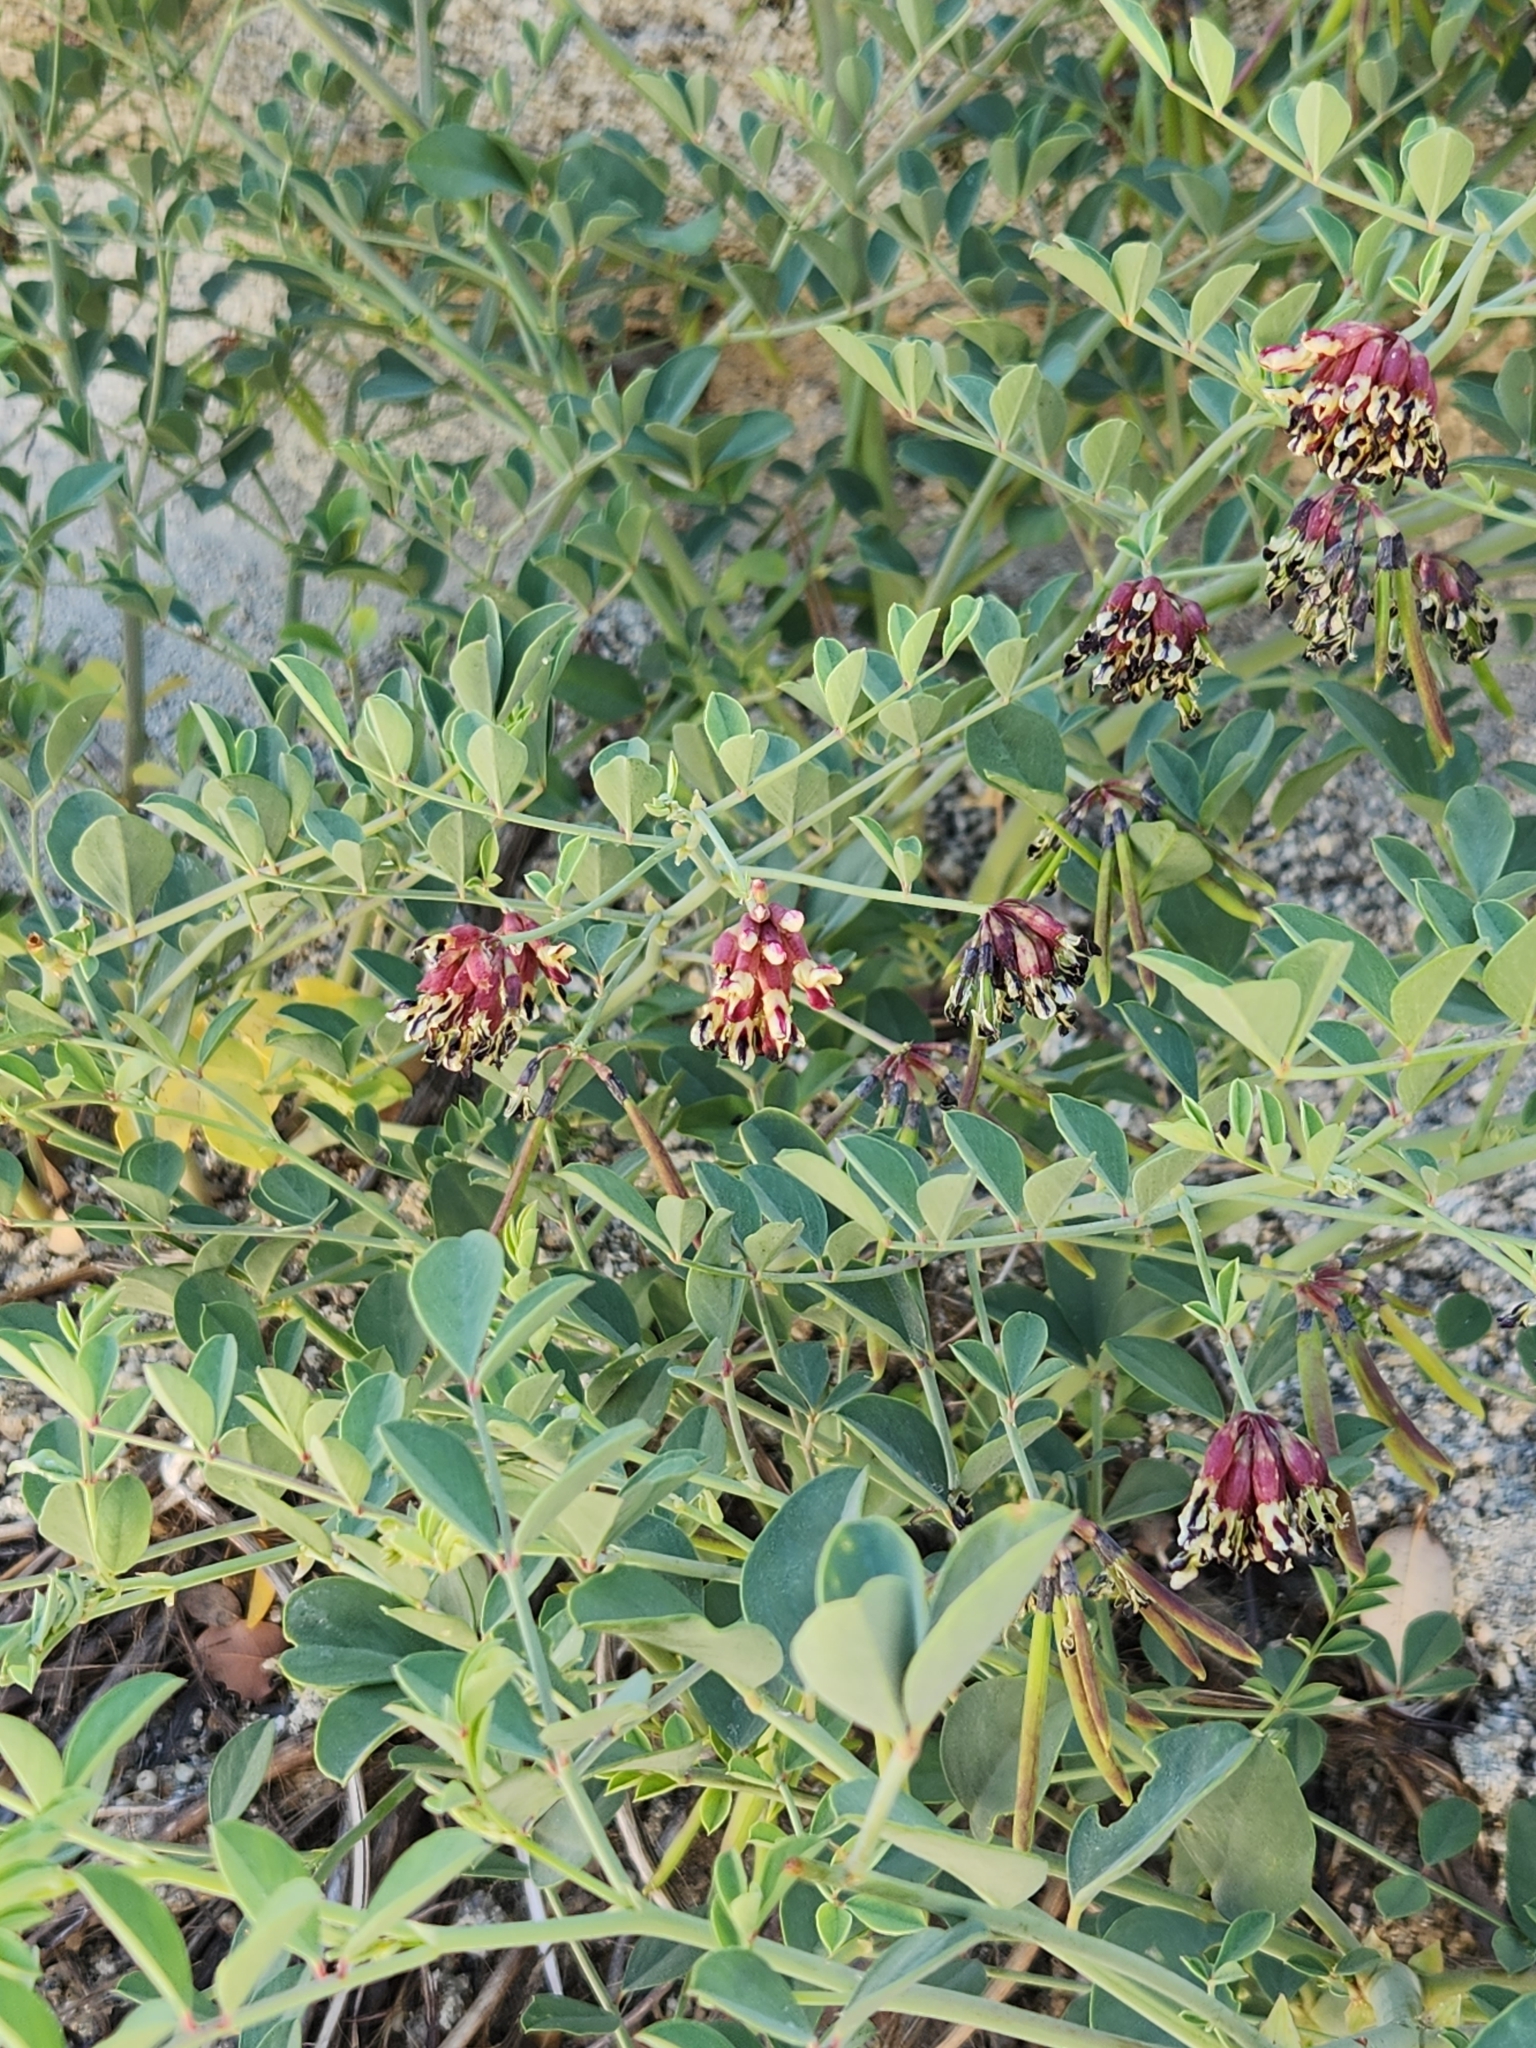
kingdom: Plantae
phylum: Tracheophyta
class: Magnoliopsida
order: Fabales
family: Fabaceae
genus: Hosackia
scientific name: Hosackia crassifolia
